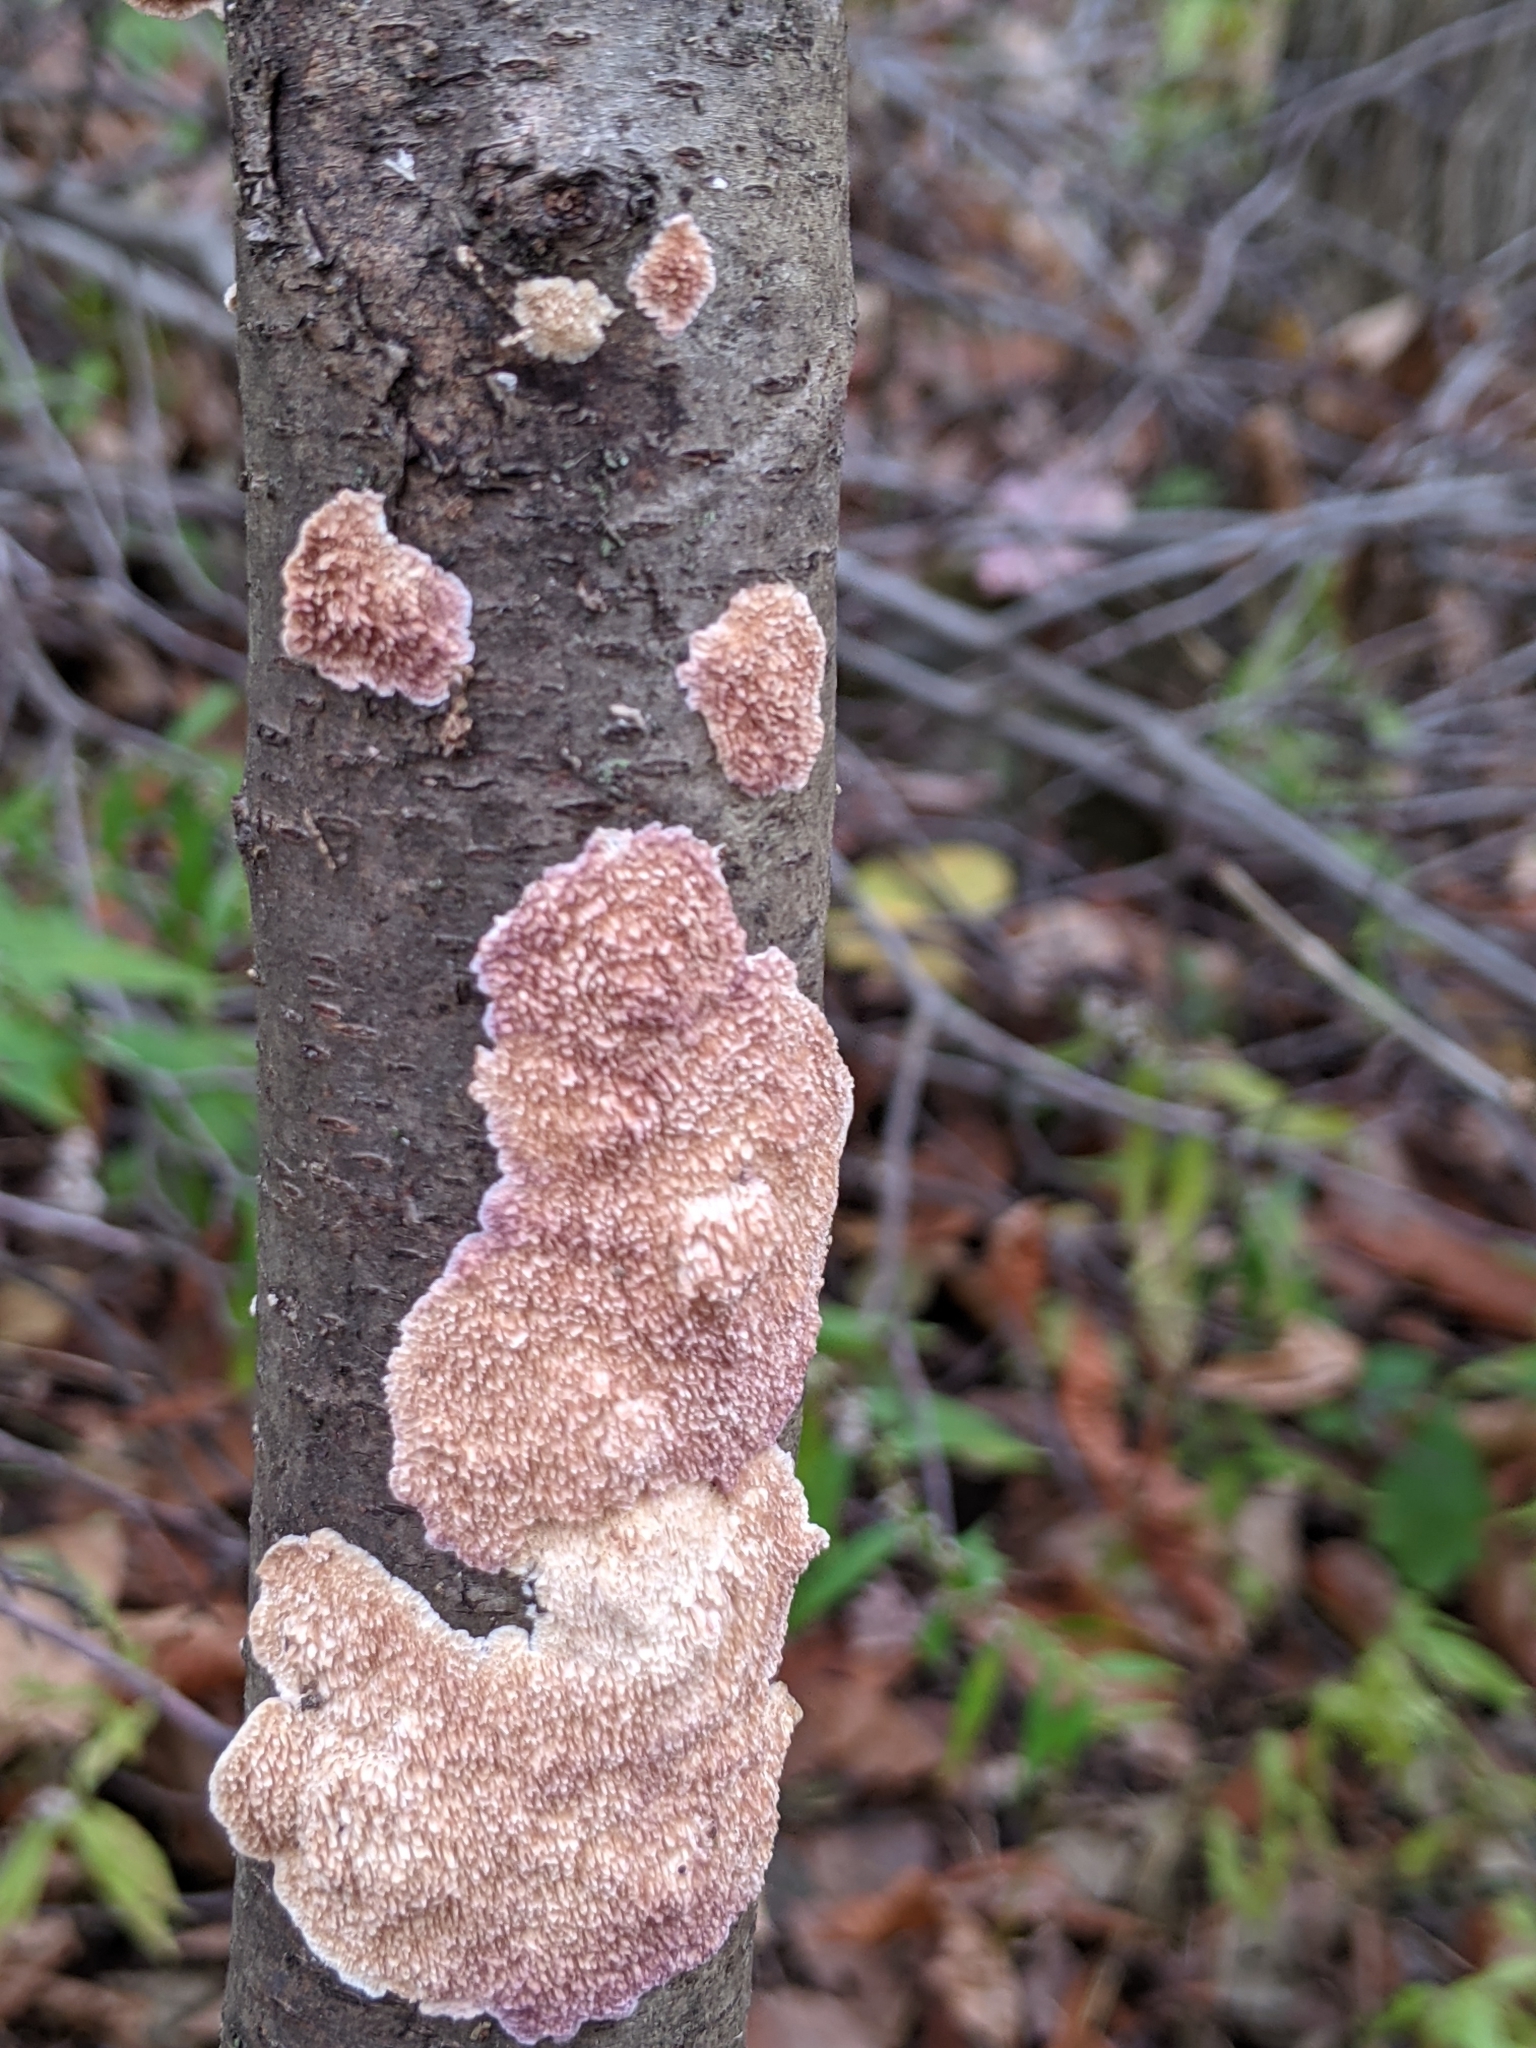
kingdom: Fungi
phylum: Basidiomycota
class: Agaricomycetes
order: Hymenochaetales
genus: Trichaptum
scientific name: Trichaptum biforme
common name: Violet-toothed polypore
